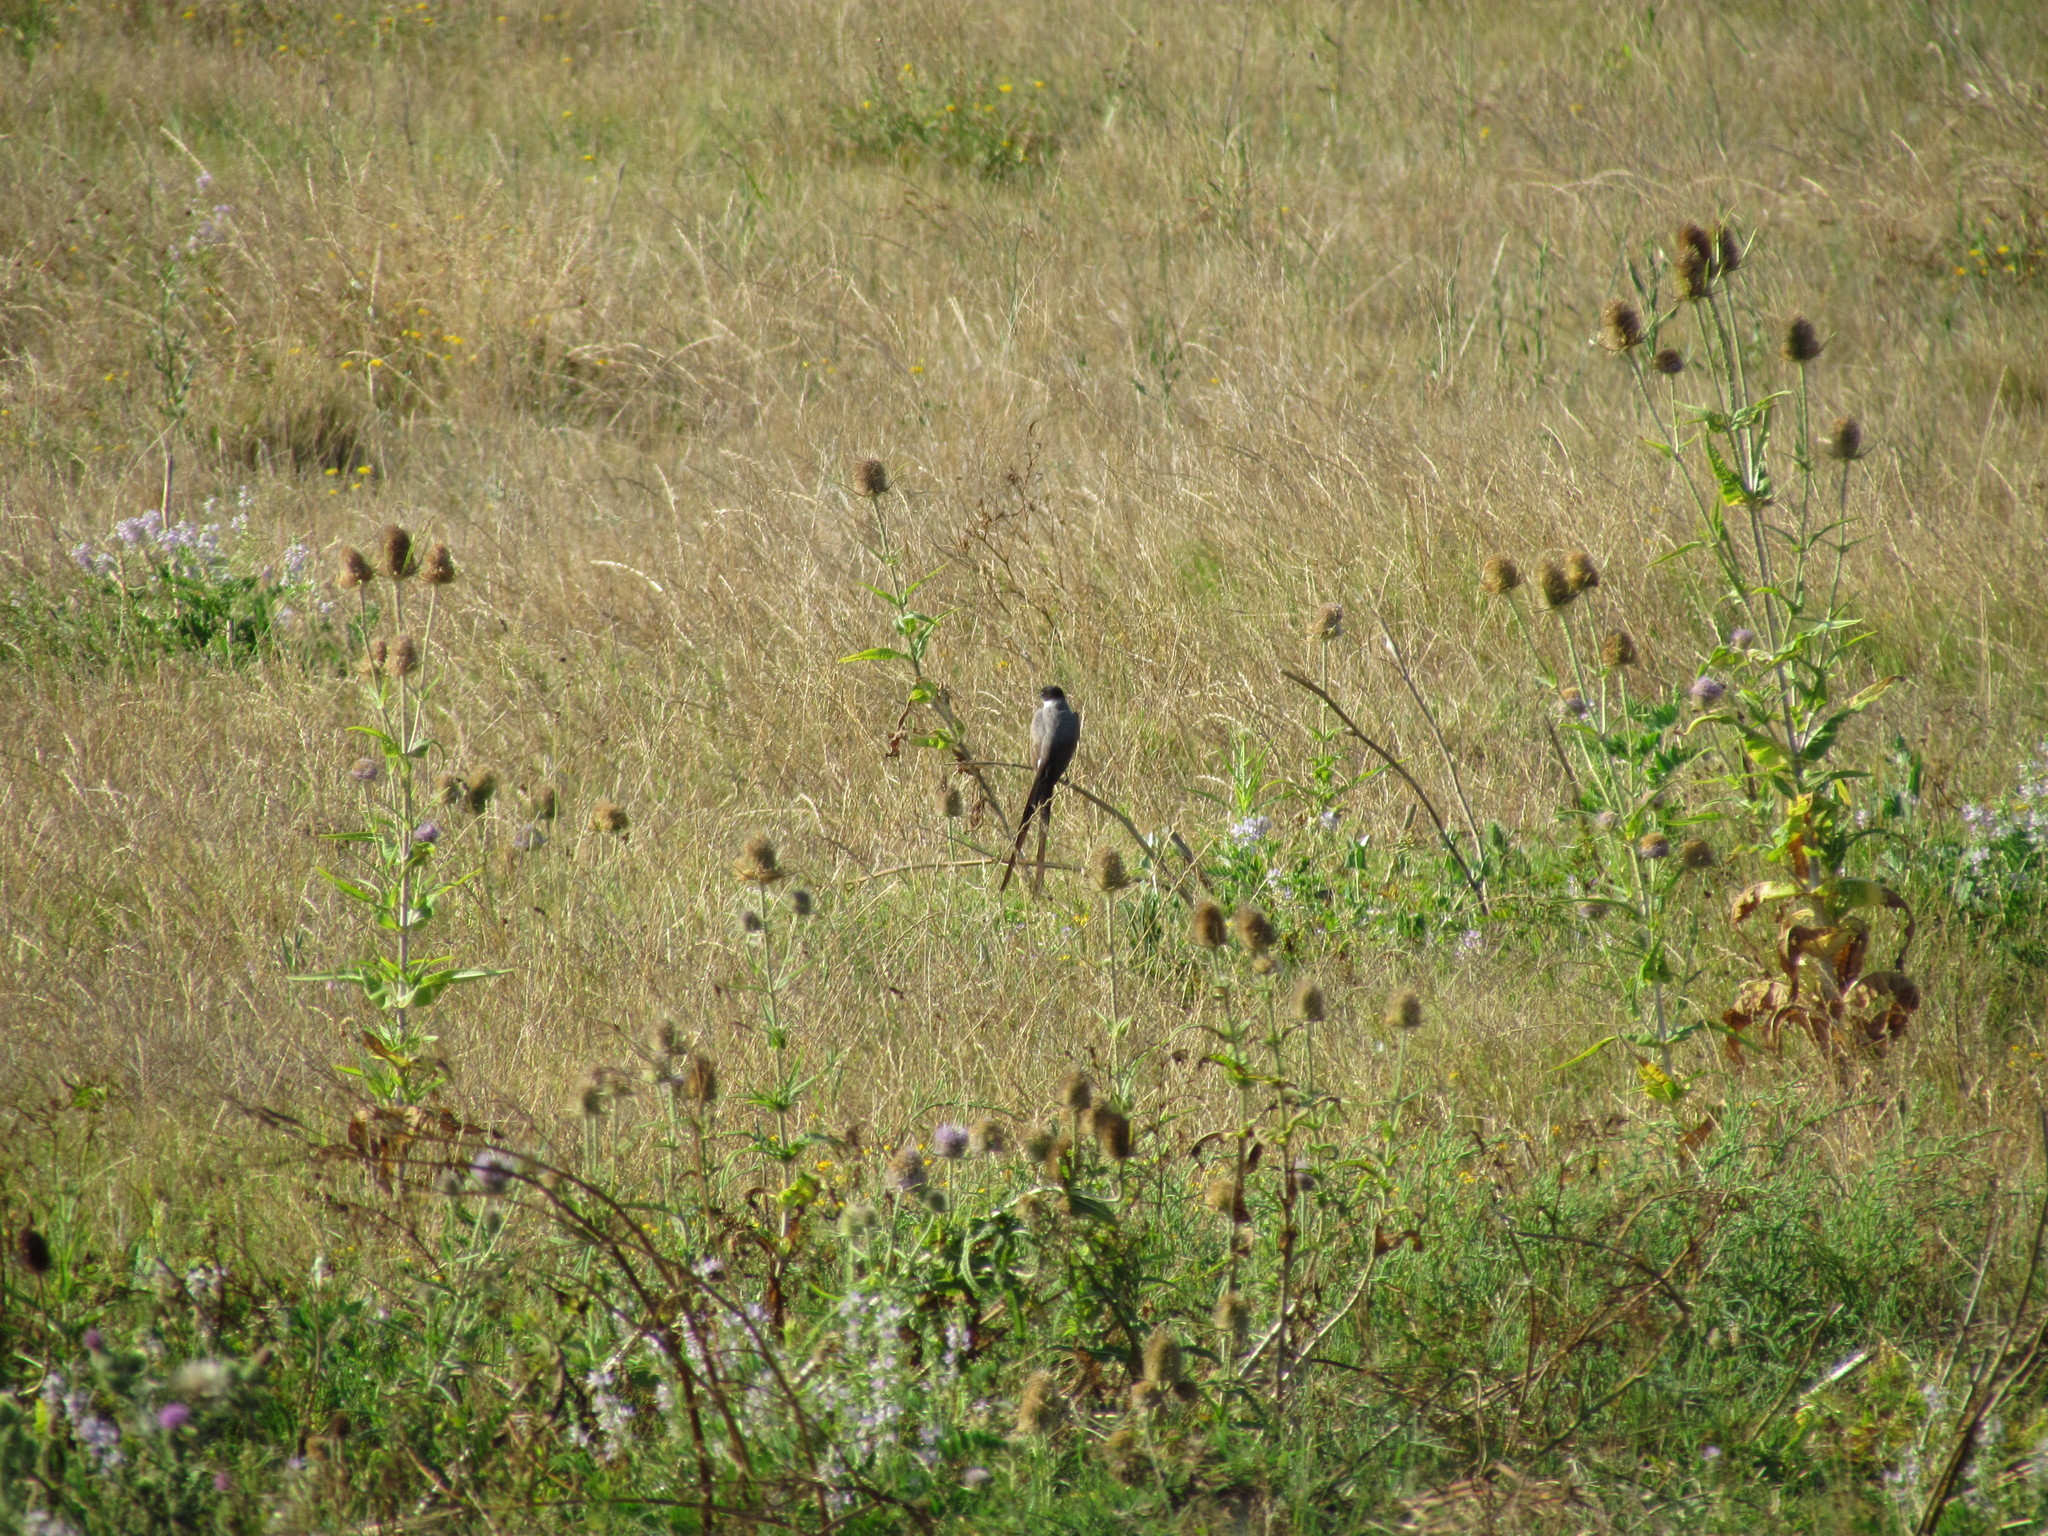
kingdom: Animalia
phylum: Chordata
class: Aves
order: Passeriformes
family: Tyrannidae
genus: Tyrannus
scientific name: Tyrannus savana
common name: Fork-tailed flycatcher
